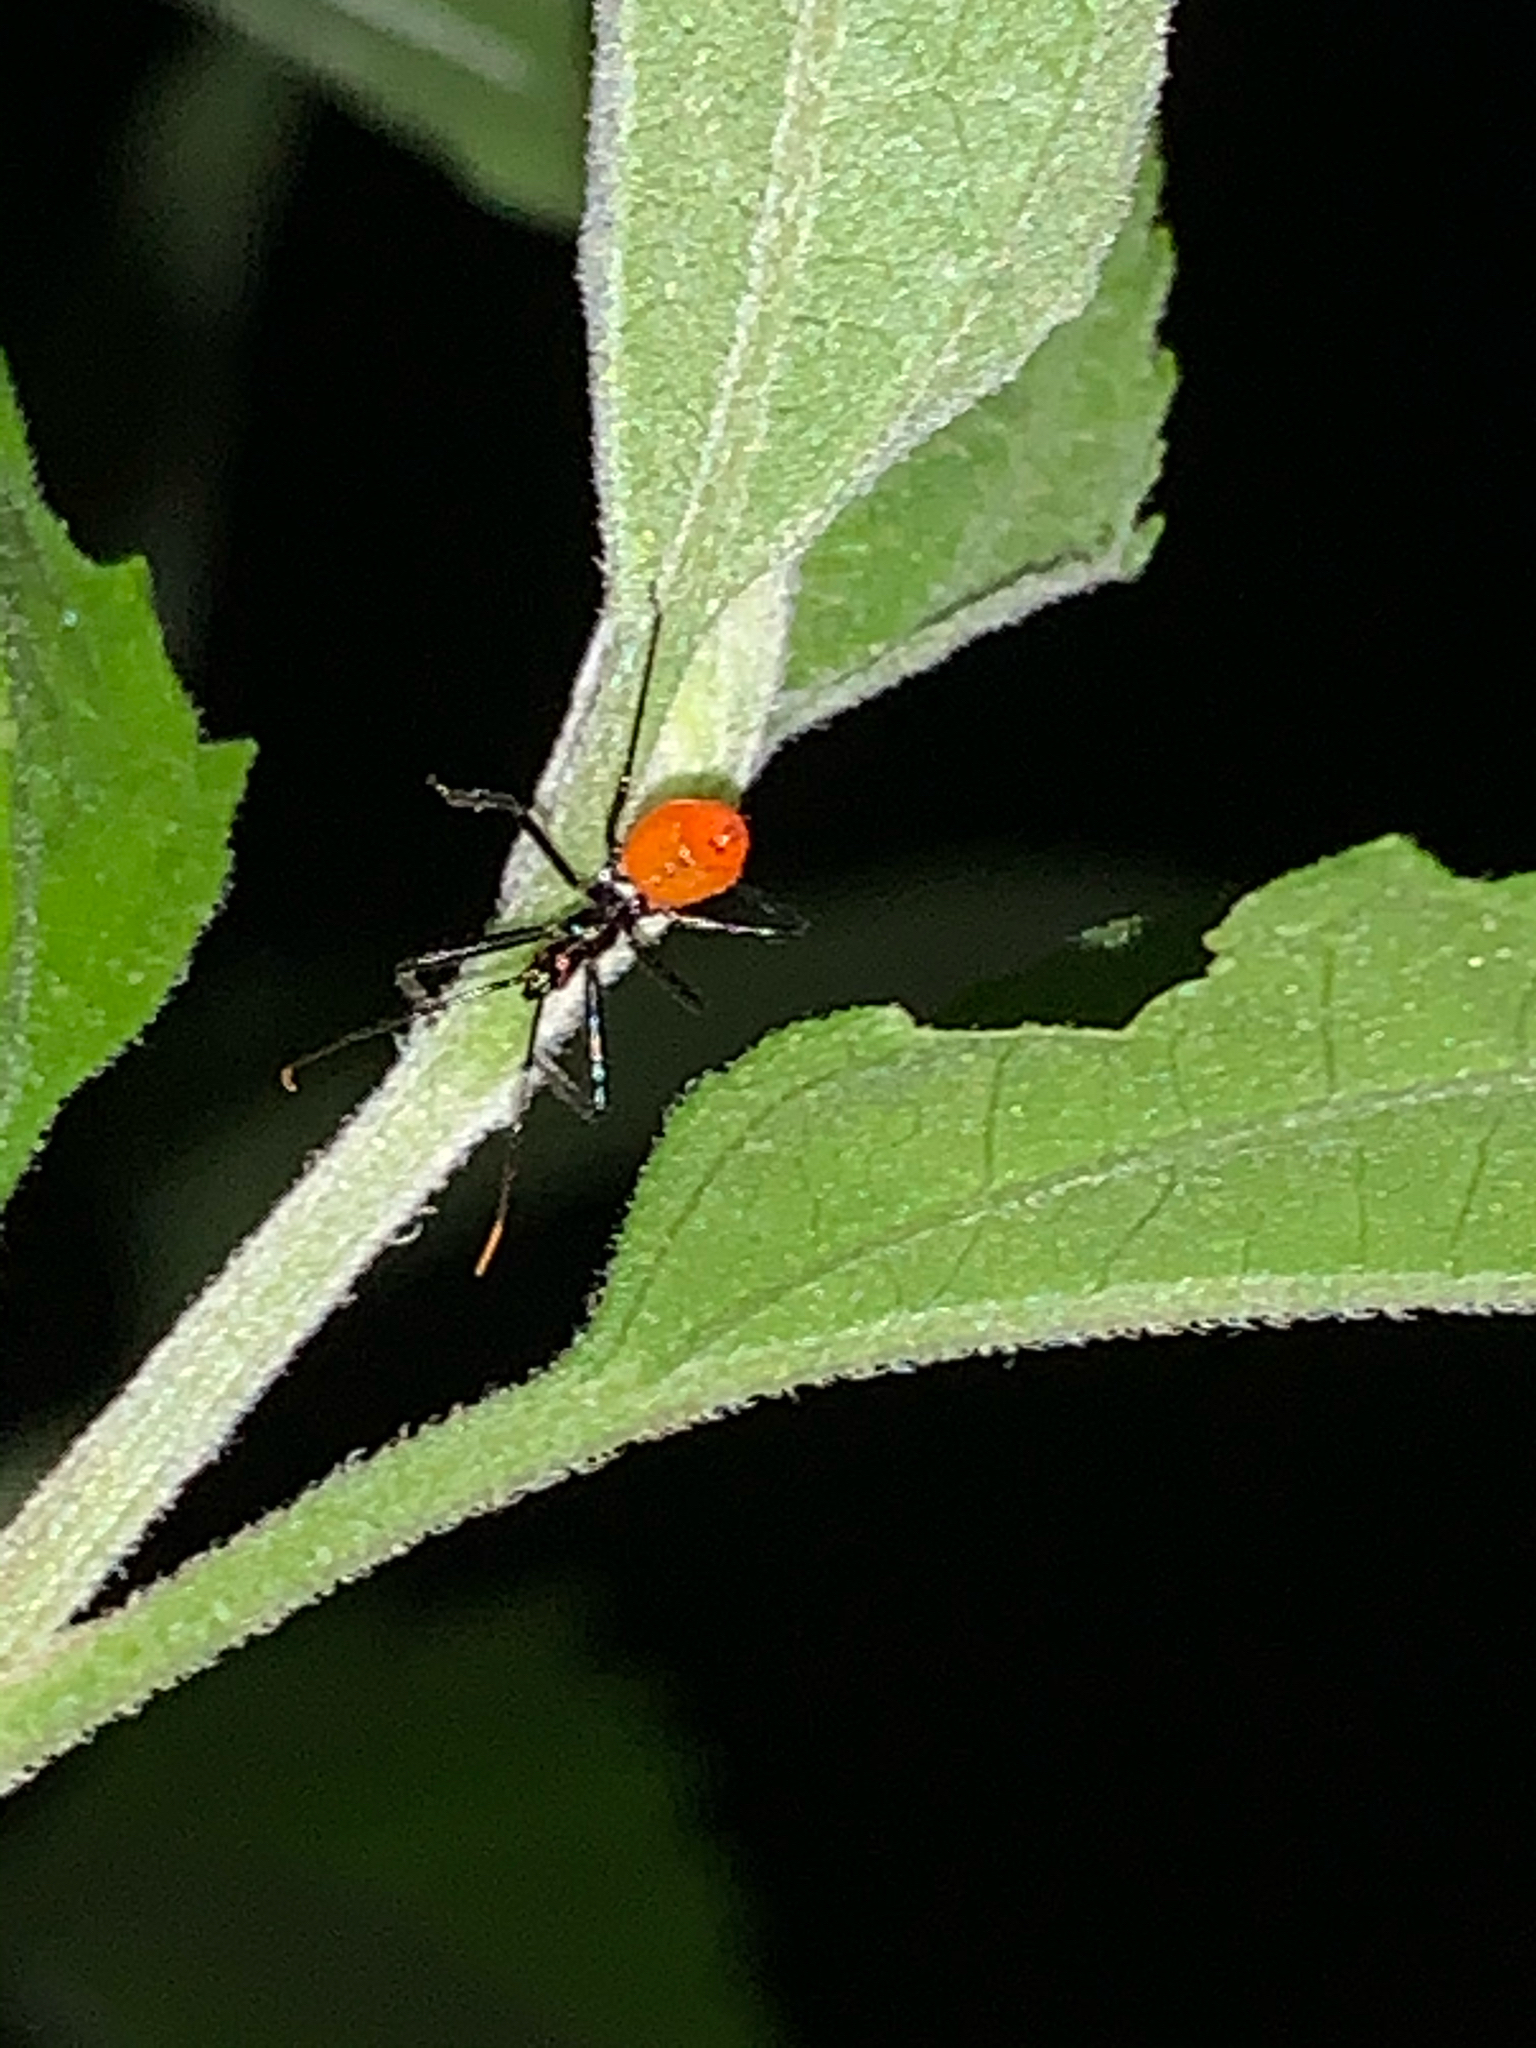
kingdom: Animalia
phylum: Arthropoda
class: Insecta
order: Hemiptera
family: Reduviidae
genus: Arilus
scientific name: Arilus cristatus
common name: North american wheel bug
